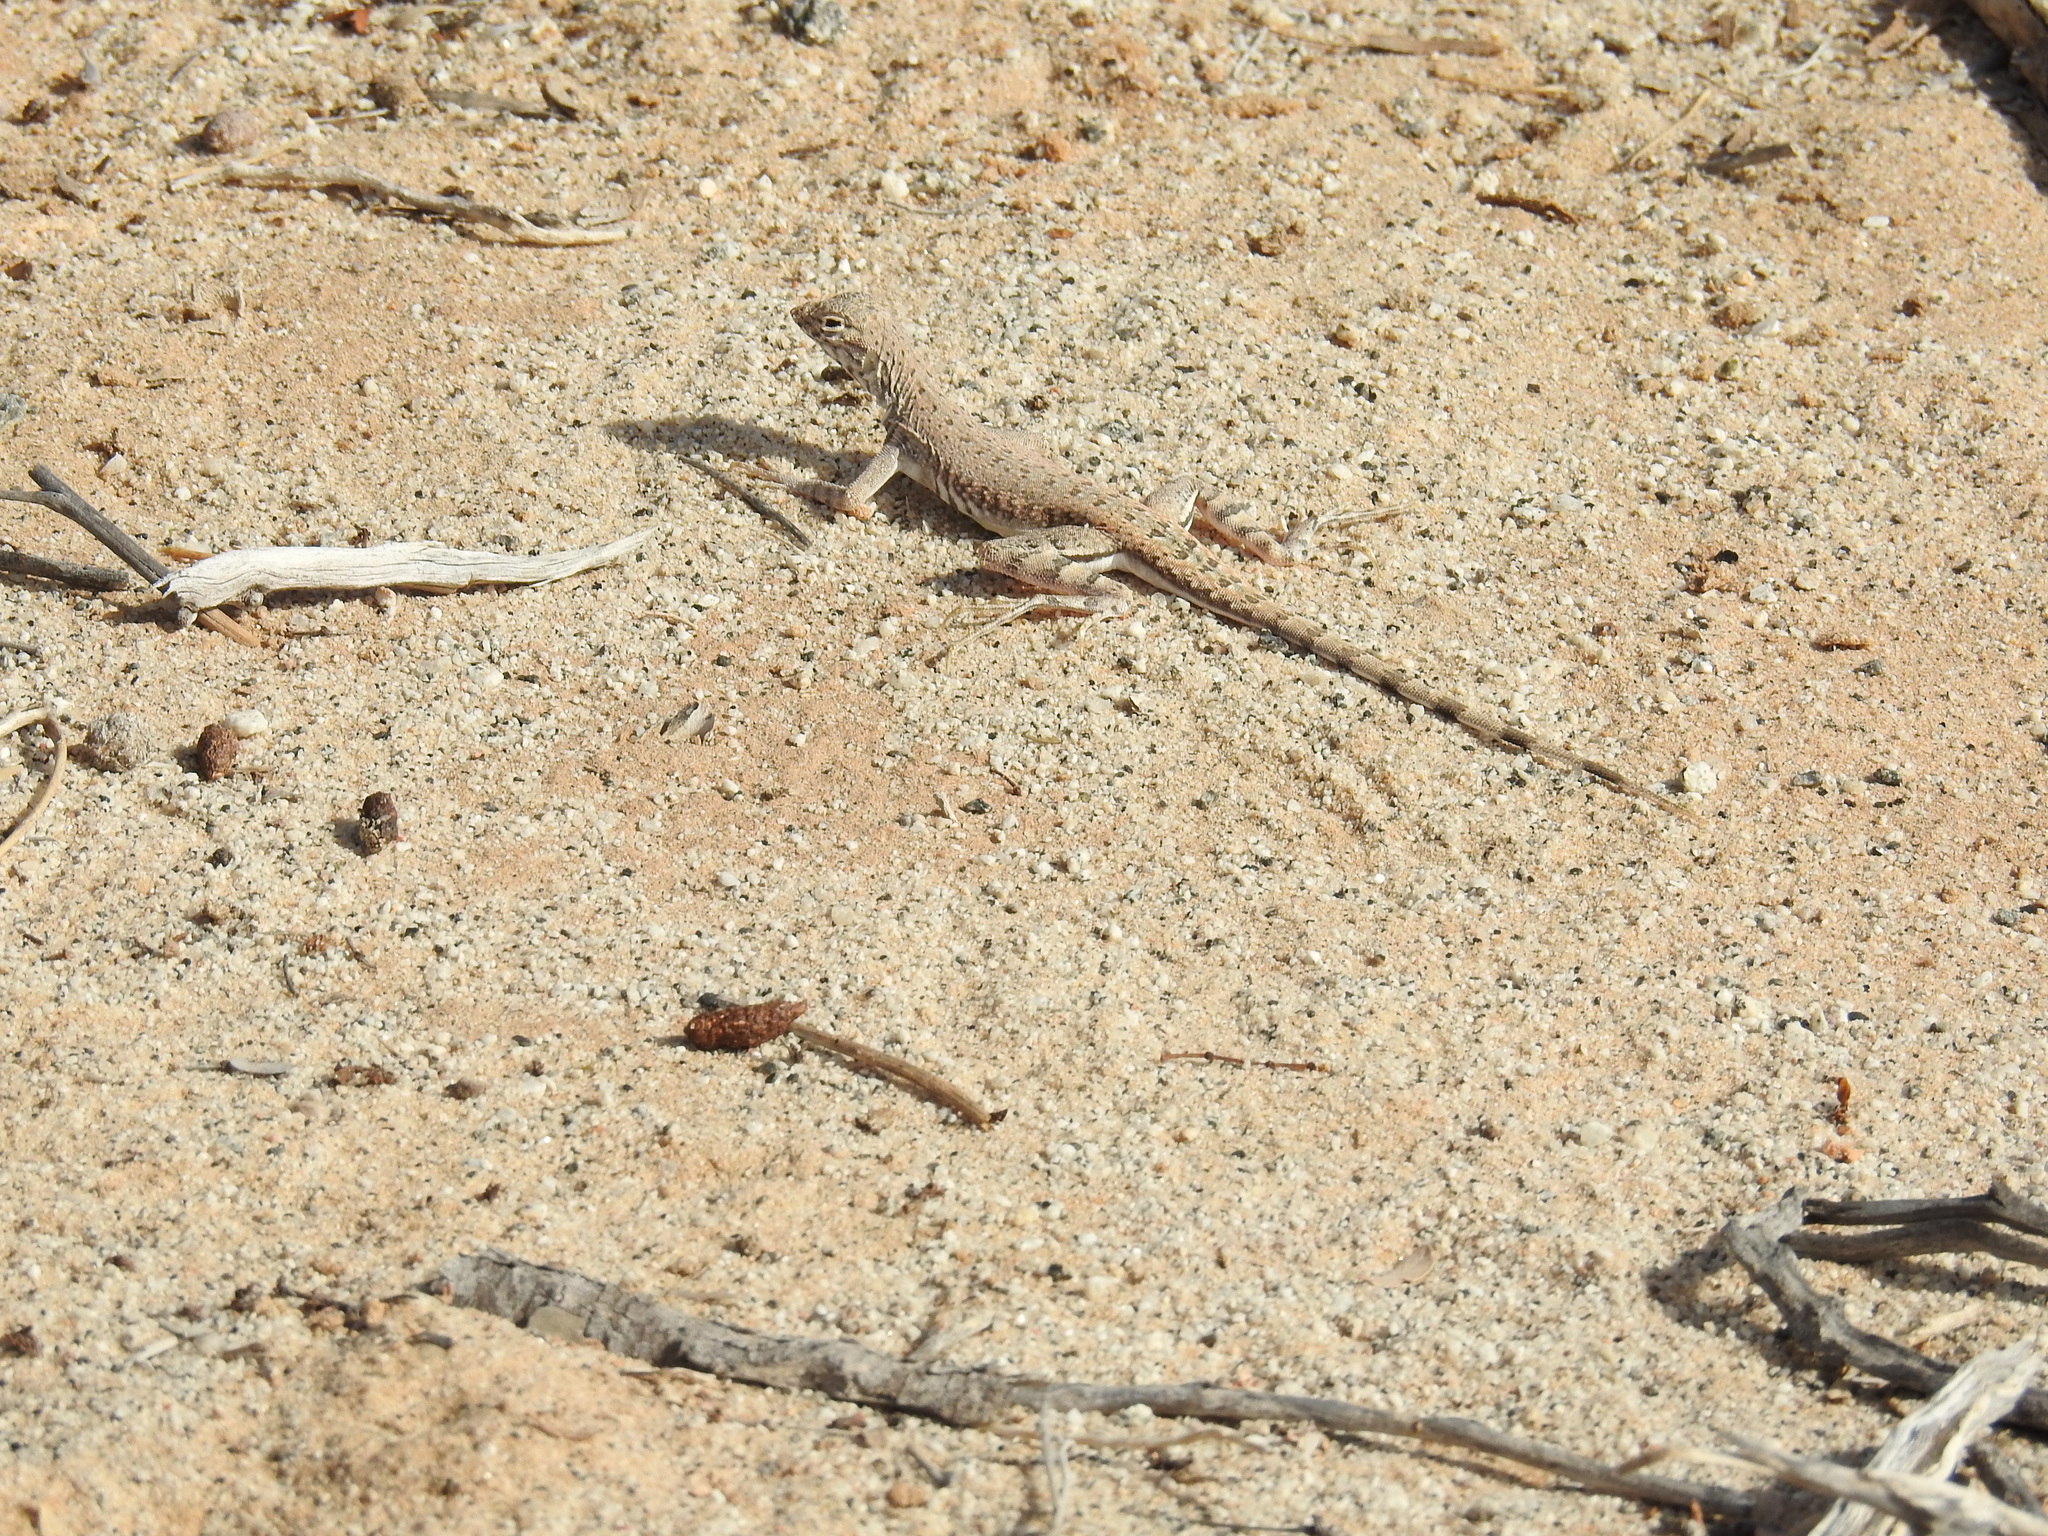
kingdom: Animalia
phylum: Chordata
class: Squamata
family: Phrynosomatidae
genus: Callisaurus
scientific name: Callisaurus draconoides
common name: Zebra-tailed lizard
